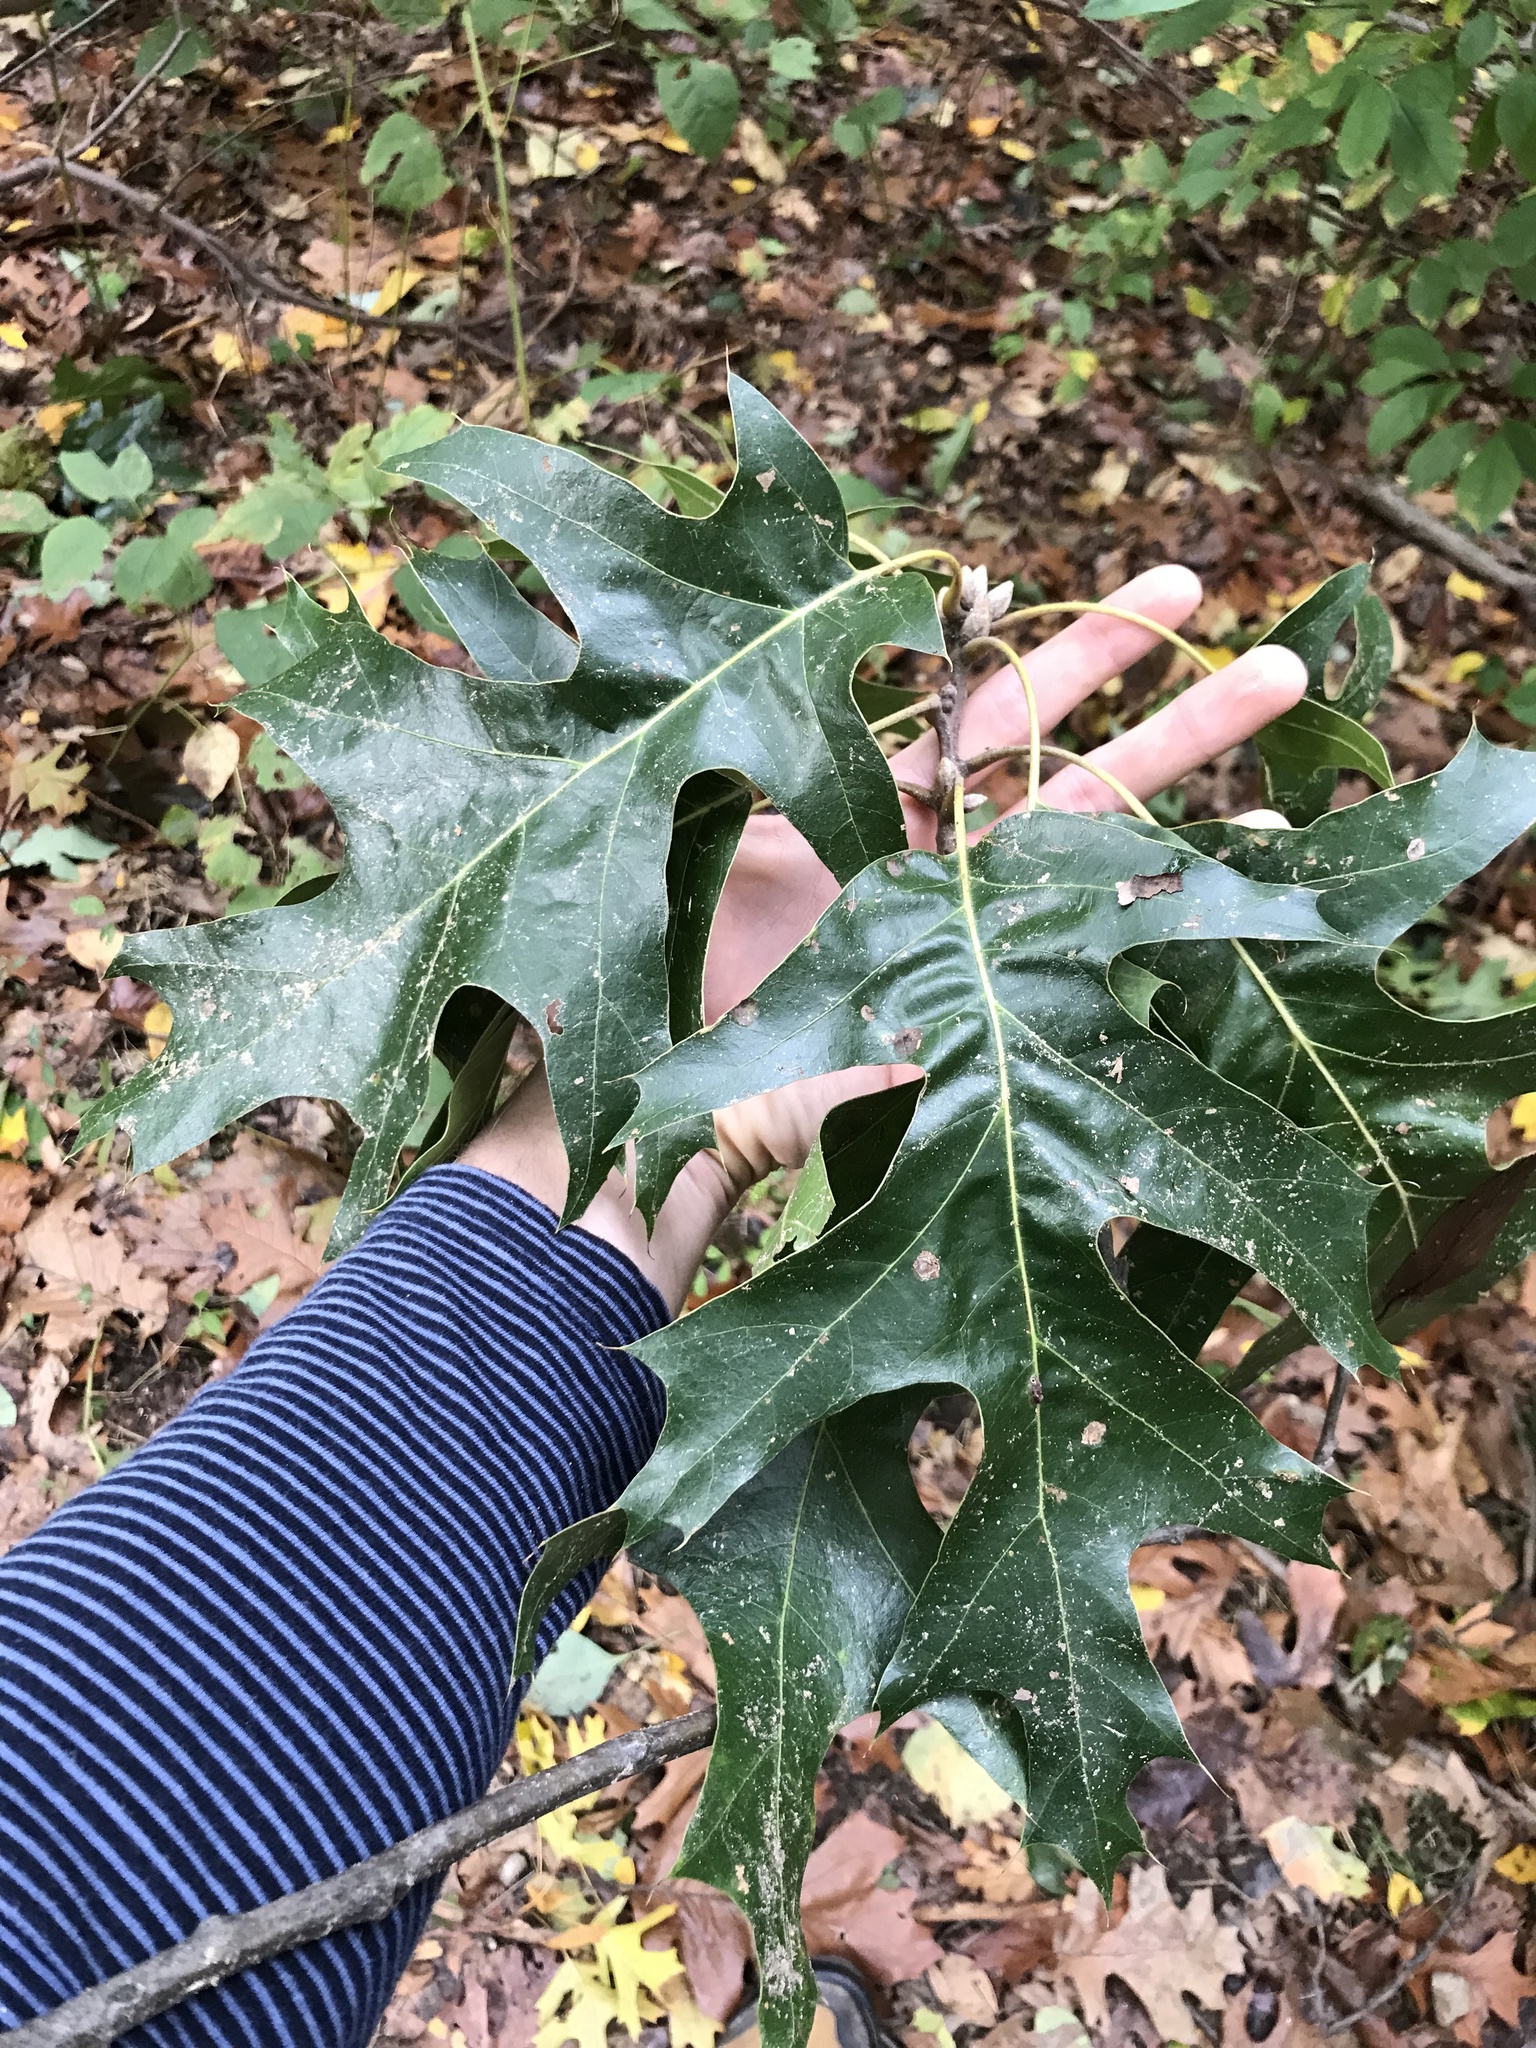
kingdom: Plantae
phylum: Tracheophyta
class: Magnoliopsida
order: Fagales
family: Fagaceae
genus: Quercus
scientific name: Quercus velutina
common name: Black oak
